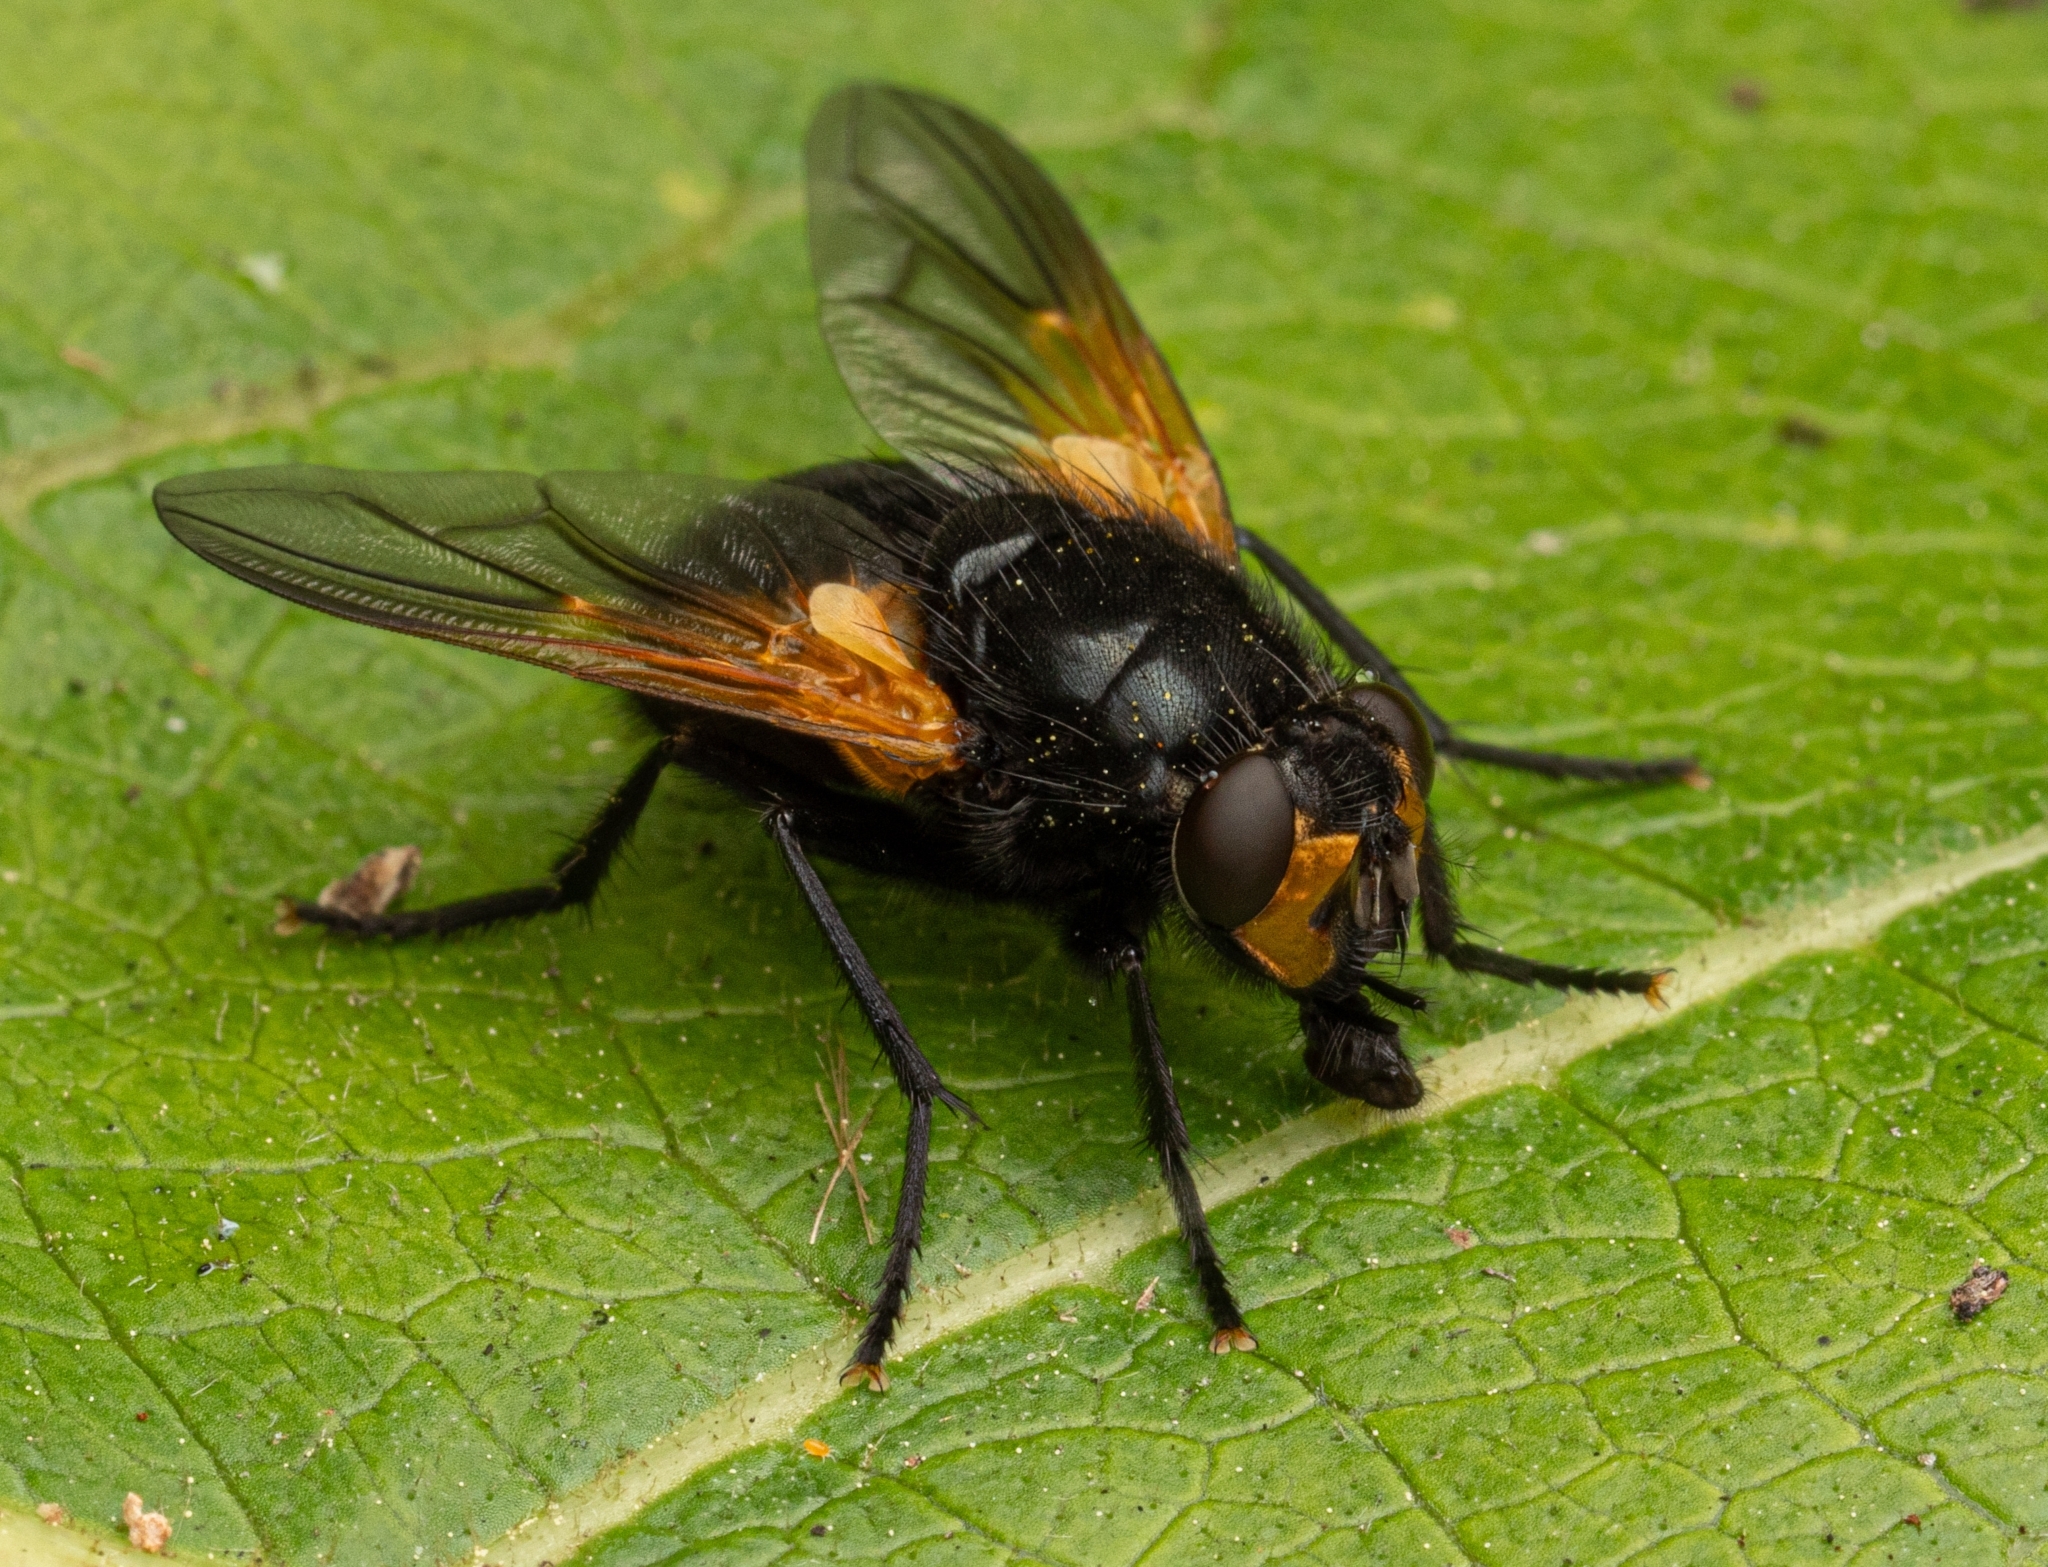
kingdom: Animalia
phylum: Arthropoda
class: Insecta
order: Diptera
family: Muscidae
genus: Mesembrina
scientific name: Mesembrina meridiana
